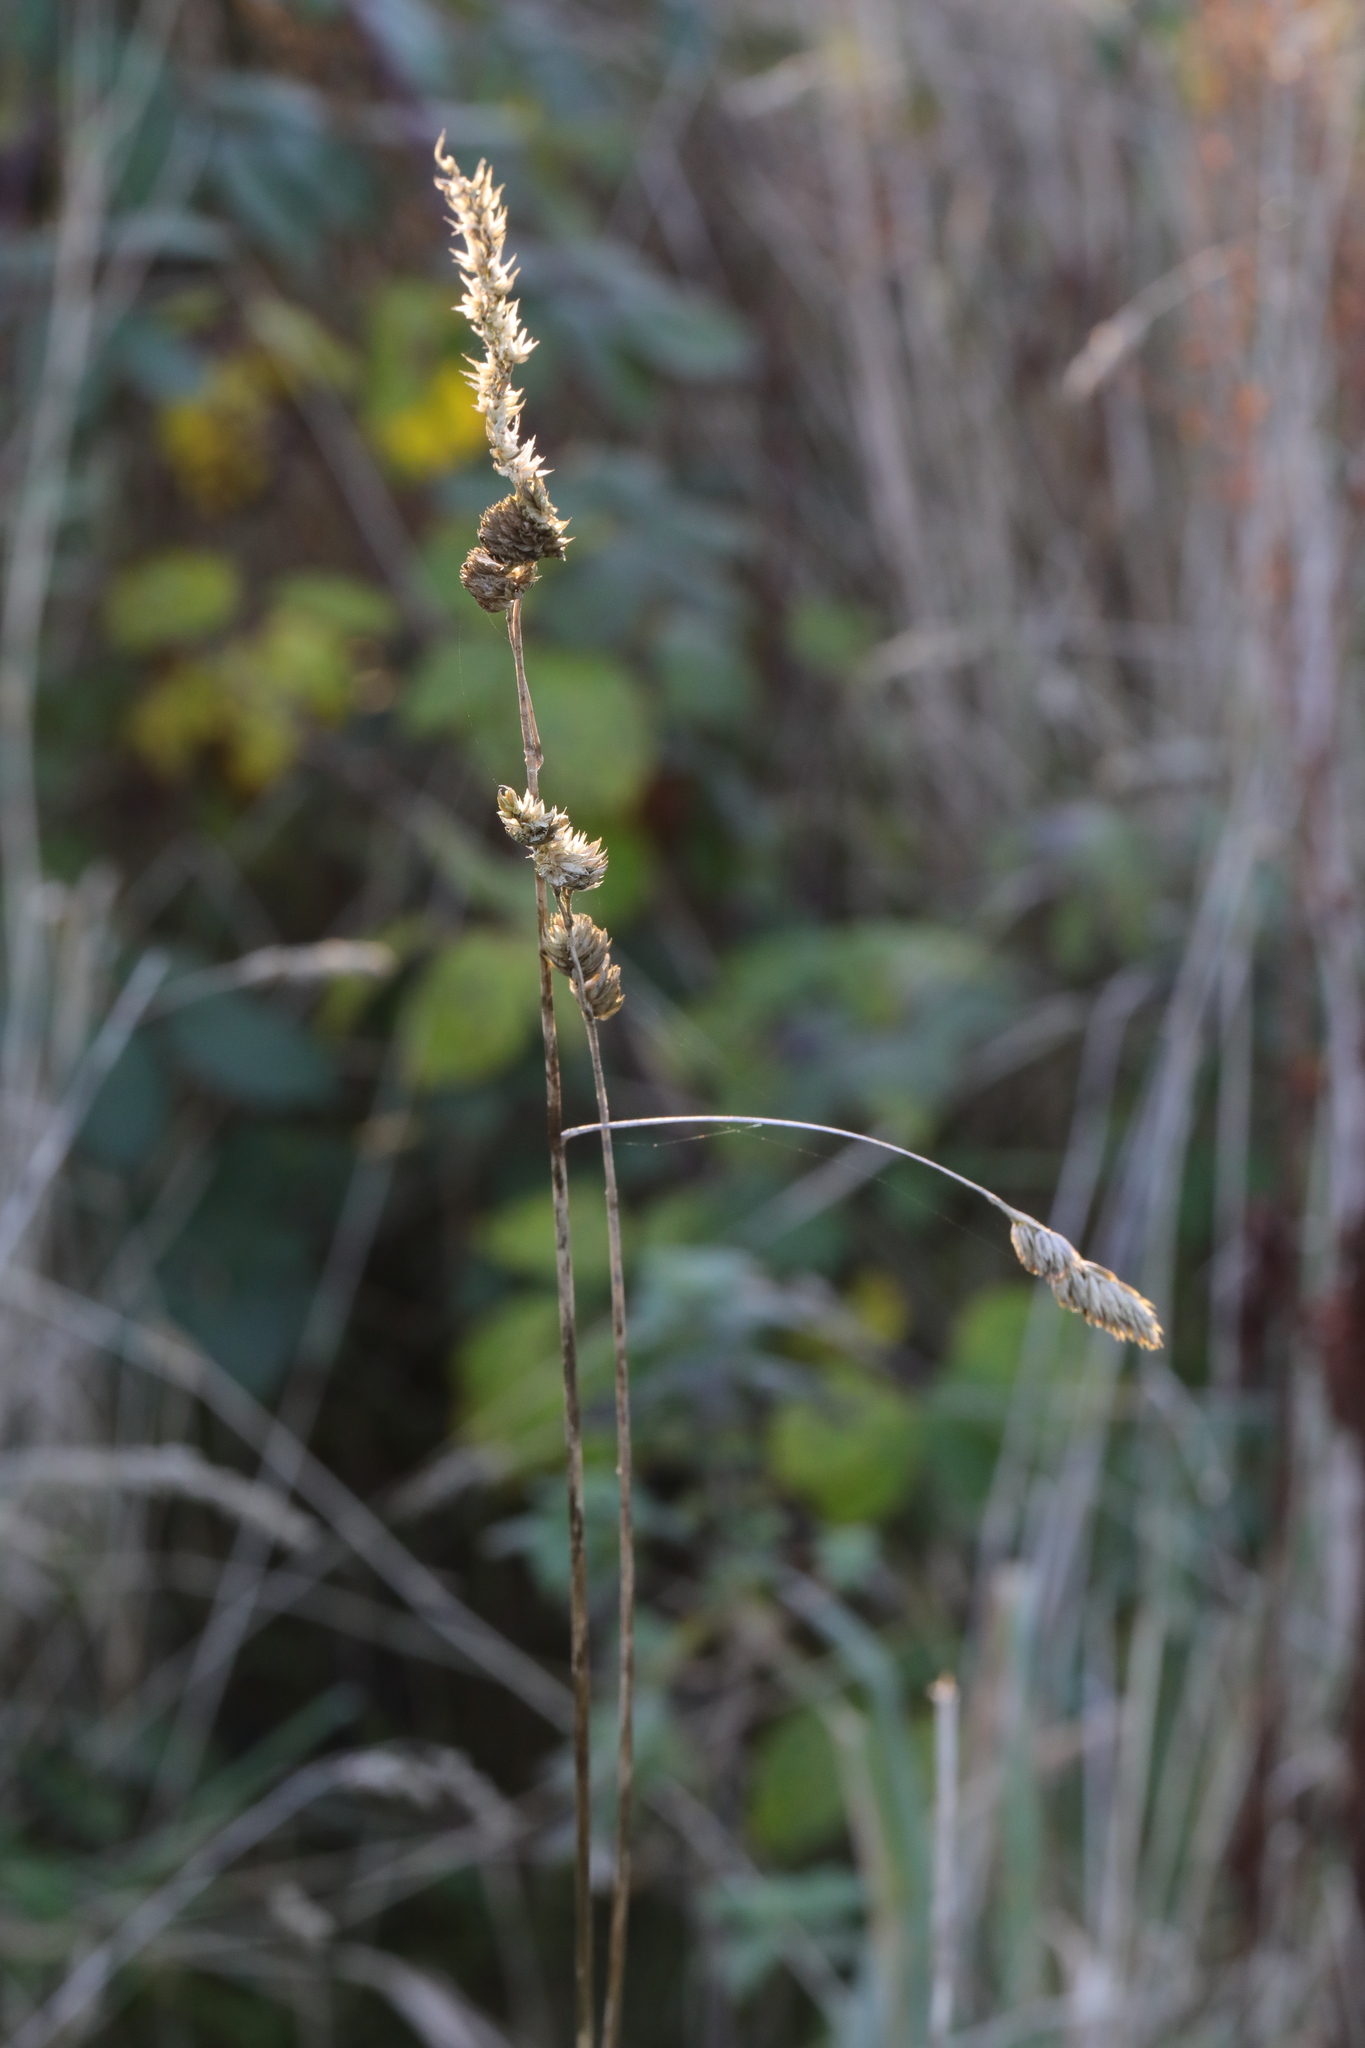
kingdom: Plantae
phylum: Tracheophyta
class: Liliopsida
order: Poales
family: Poaceae
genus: Dactylis
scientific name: Dactylis glomerata
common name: Orchardgrass
